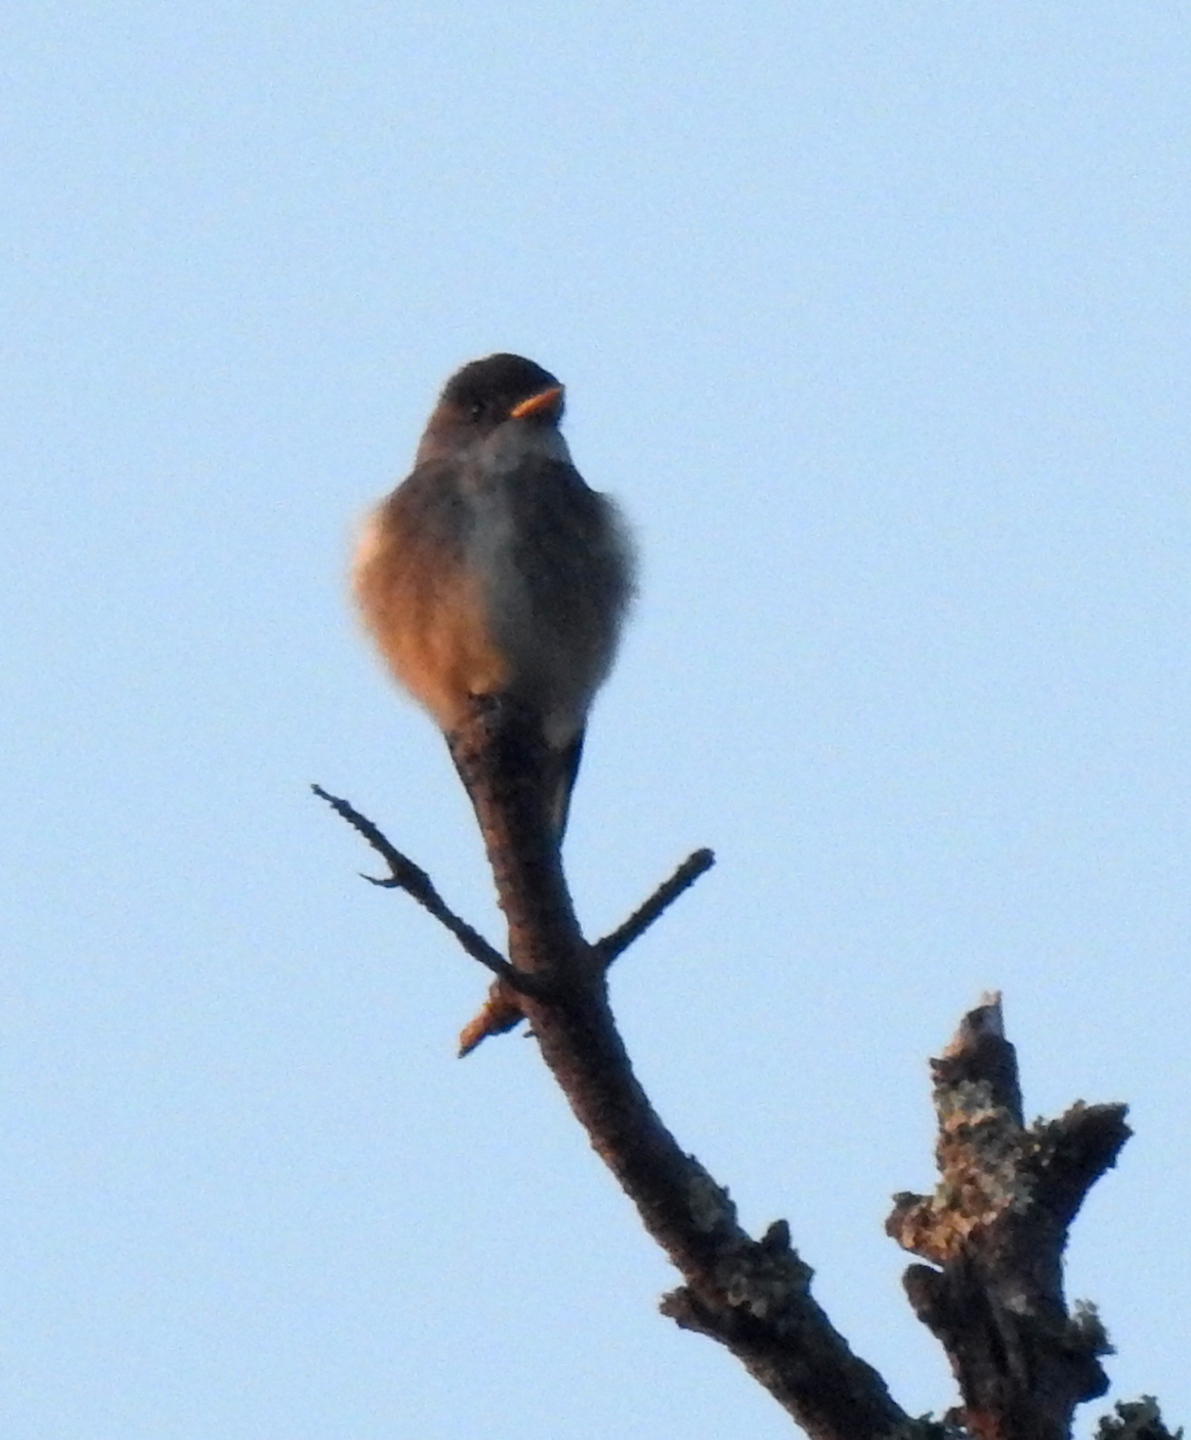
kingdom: Animalia
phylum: Chordata
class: Aves
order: Passeriformes
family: Tyrannidae
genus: Contopus
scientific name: Contopus cooperi
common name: Olive-sided flycatcher
